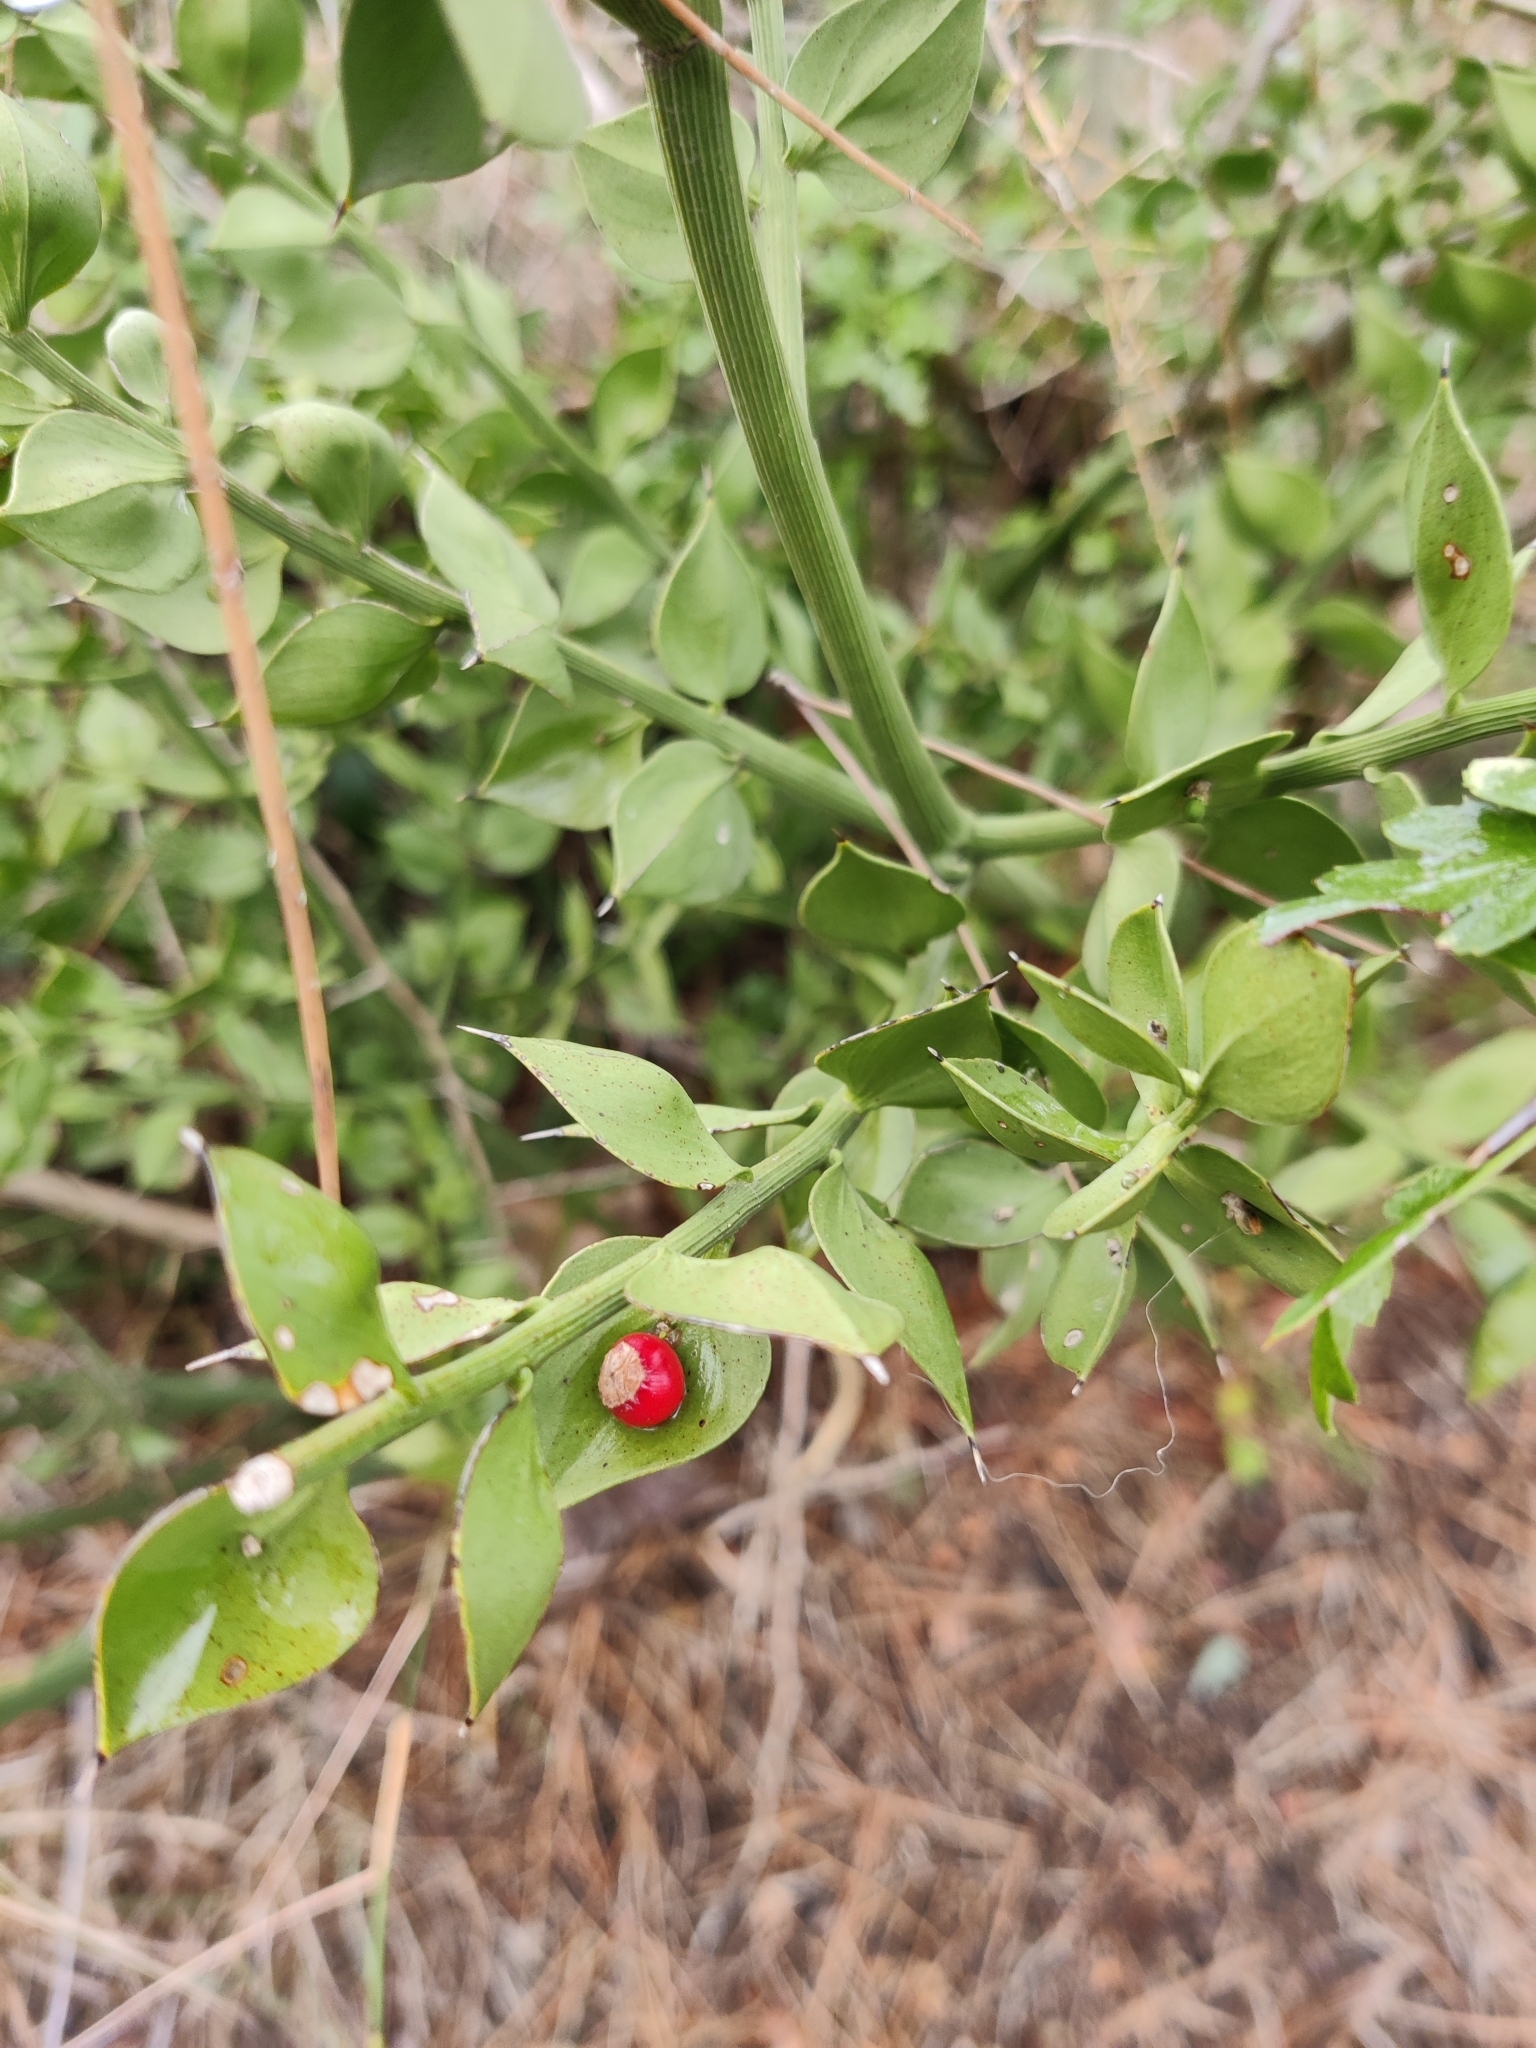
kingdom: Plantae
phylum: Tracheophyta
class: Liliopsida
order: Asparagales
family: Asparagaceae
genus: Ruscus
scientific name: Ruscus aculeatus
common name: Butcher's-broom
